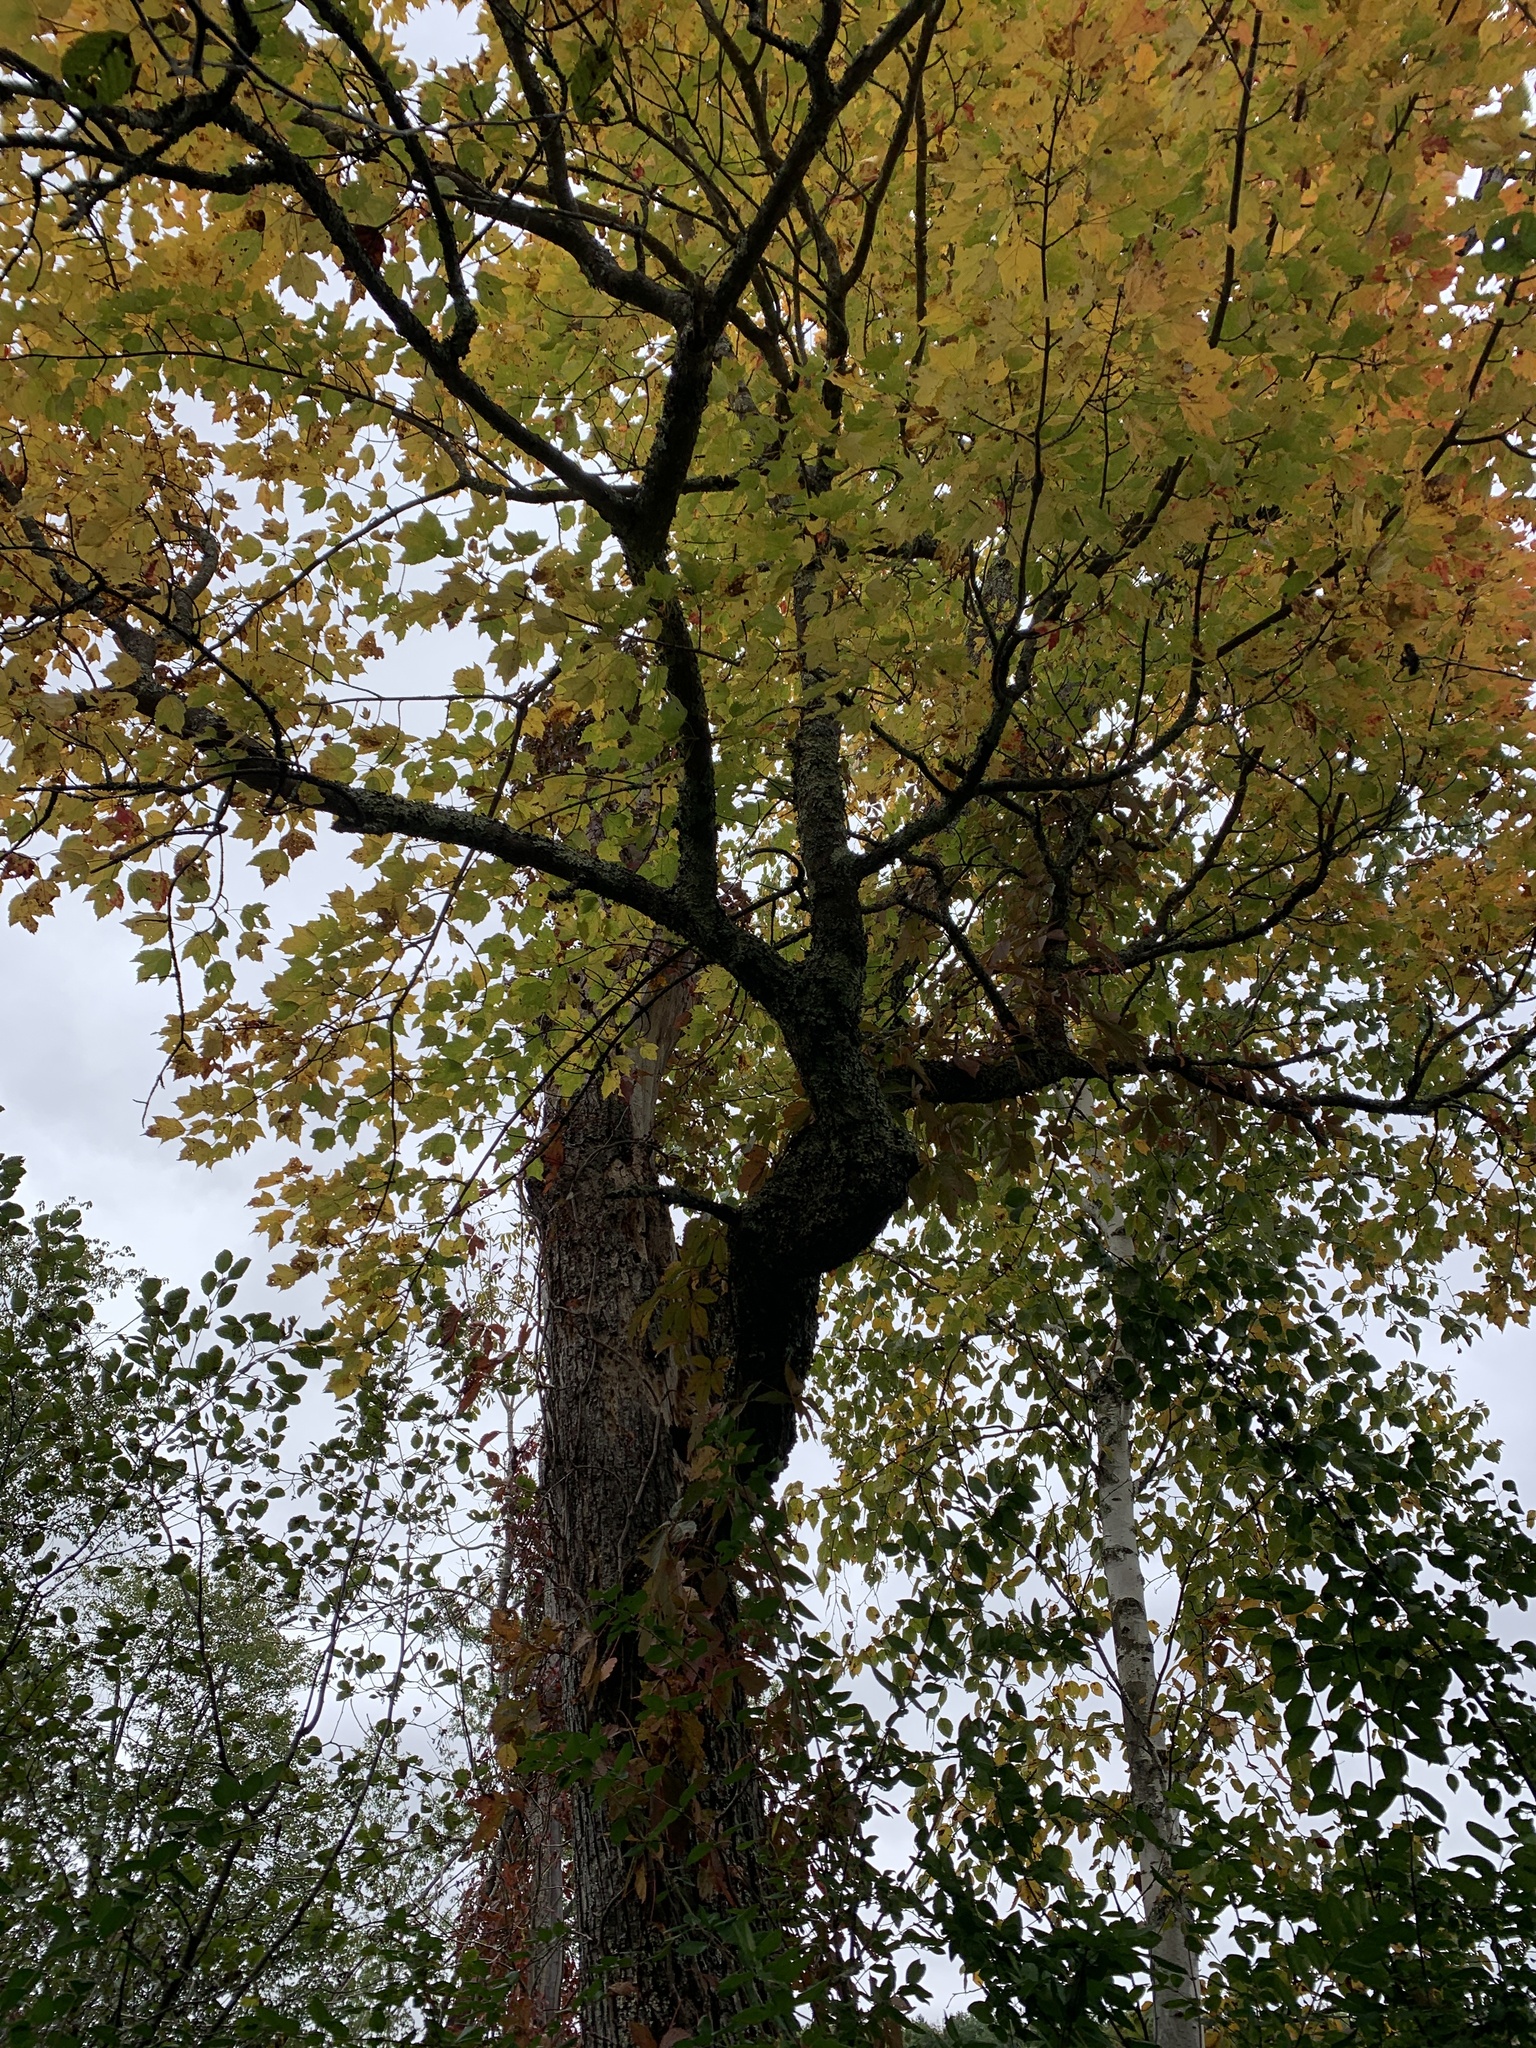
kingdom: Plantae
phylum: Tracheophyta
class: Magnoliopsida
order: Sapindales
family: Sapindaceae
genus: Acer
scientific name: Acer rubrum
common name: Red maple
